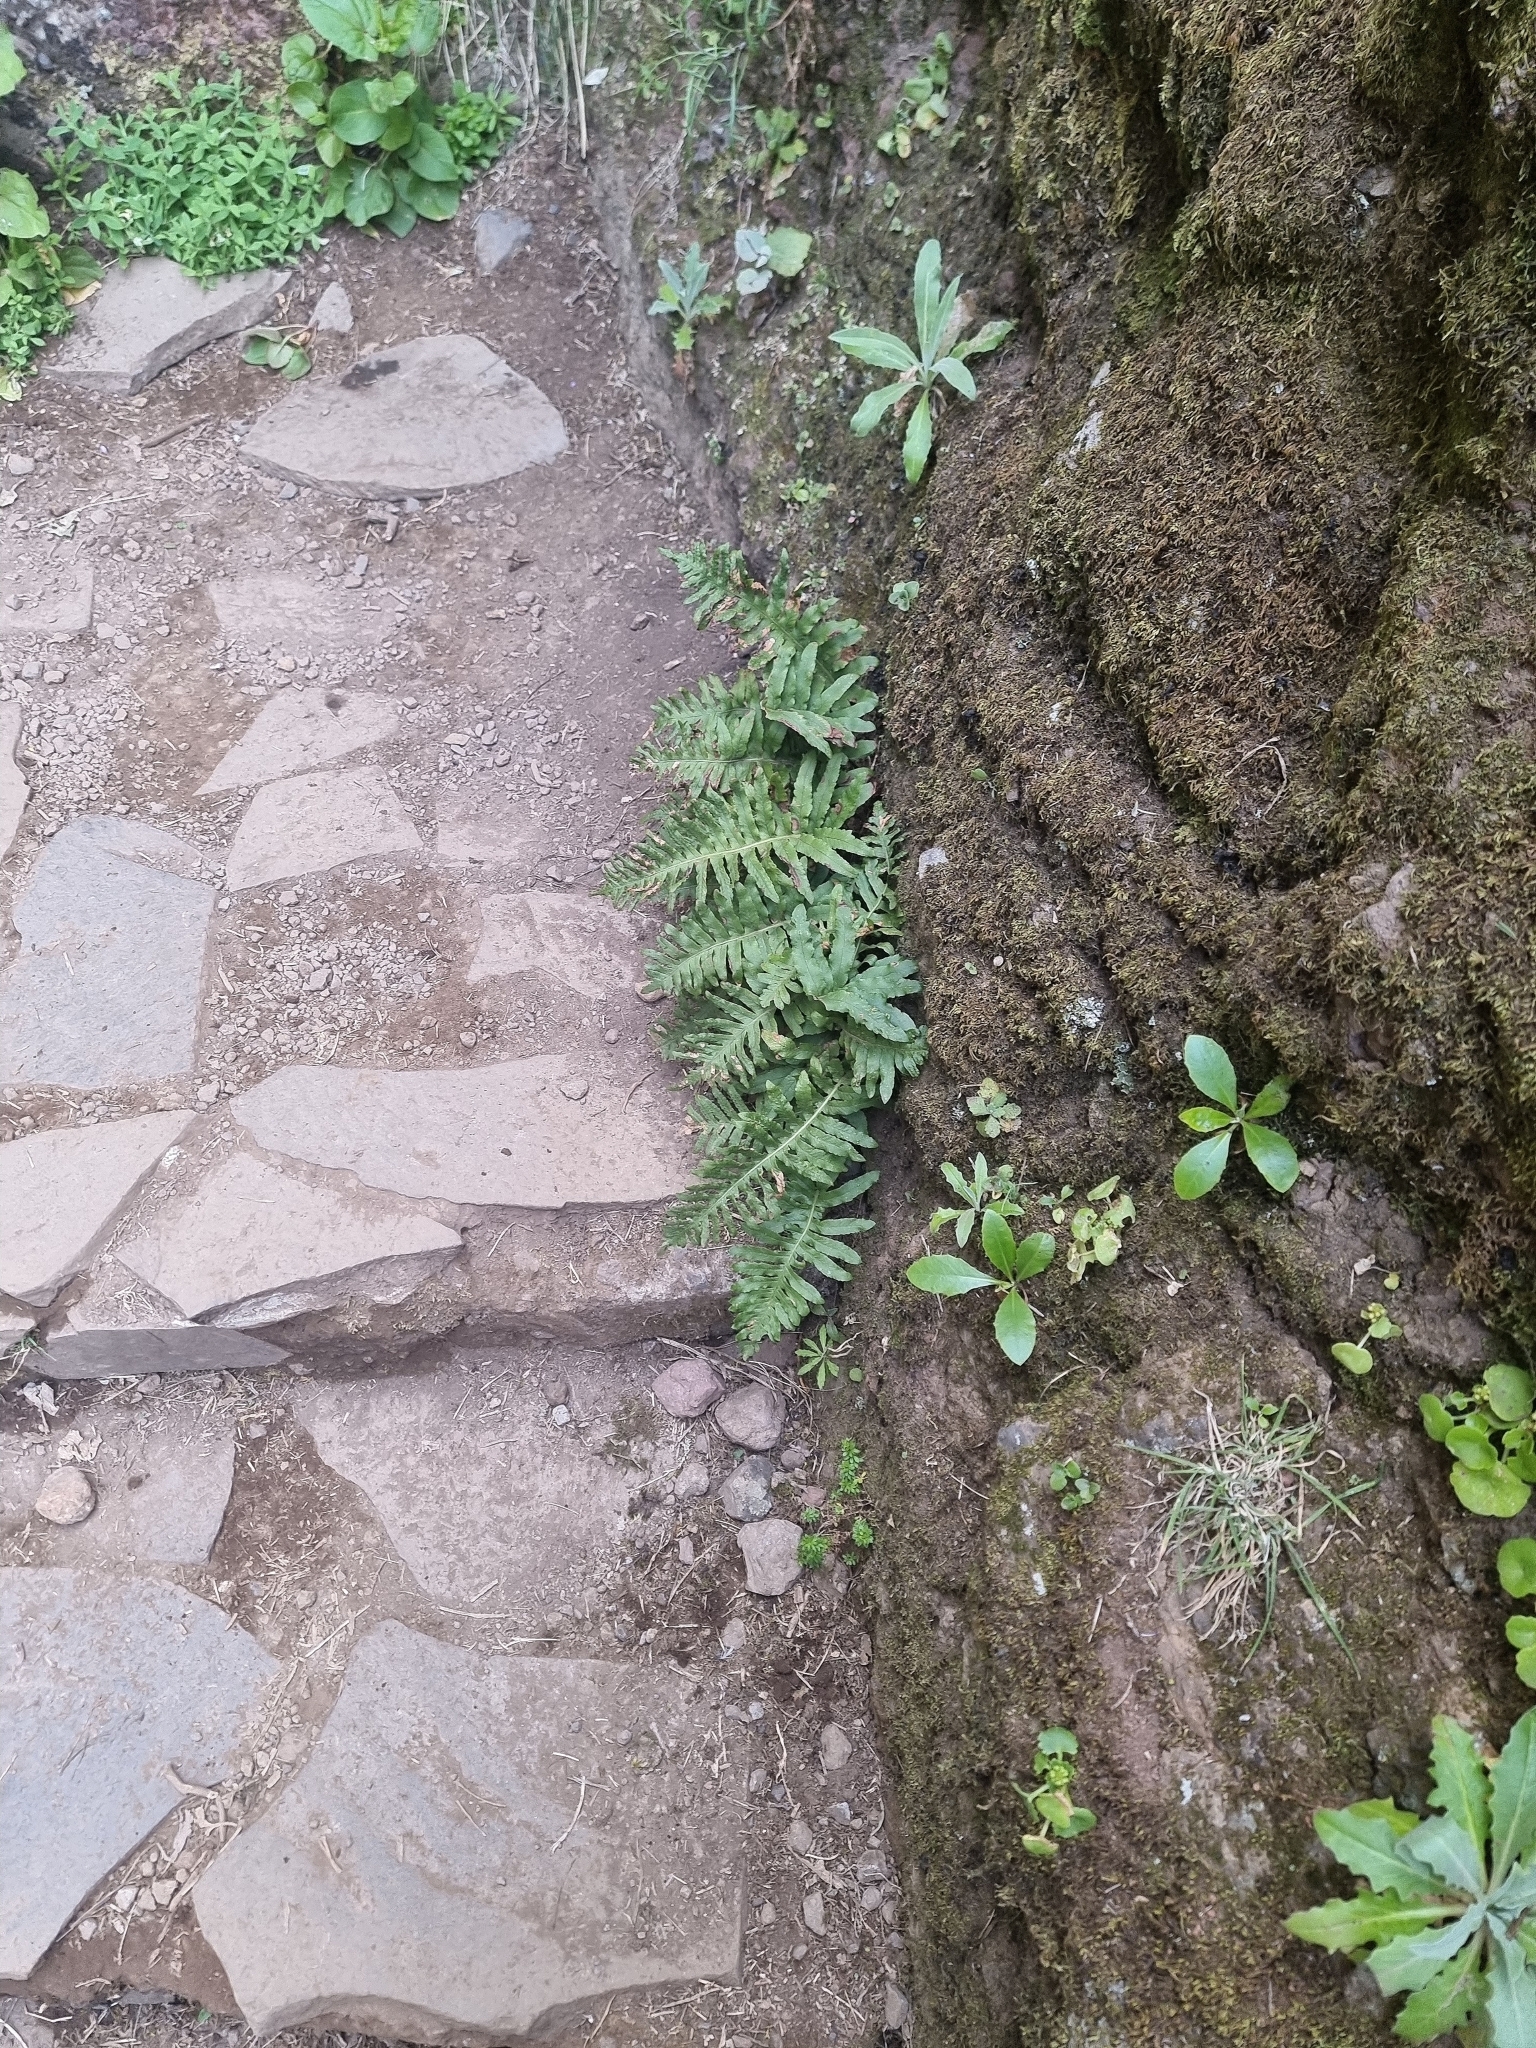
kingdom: Plantae
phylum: Tracheophyta
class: Polypodiopsida
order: Polypodiales
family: Polypodiaceae
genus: Polypodium
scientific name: Polypodium macaronesicum
